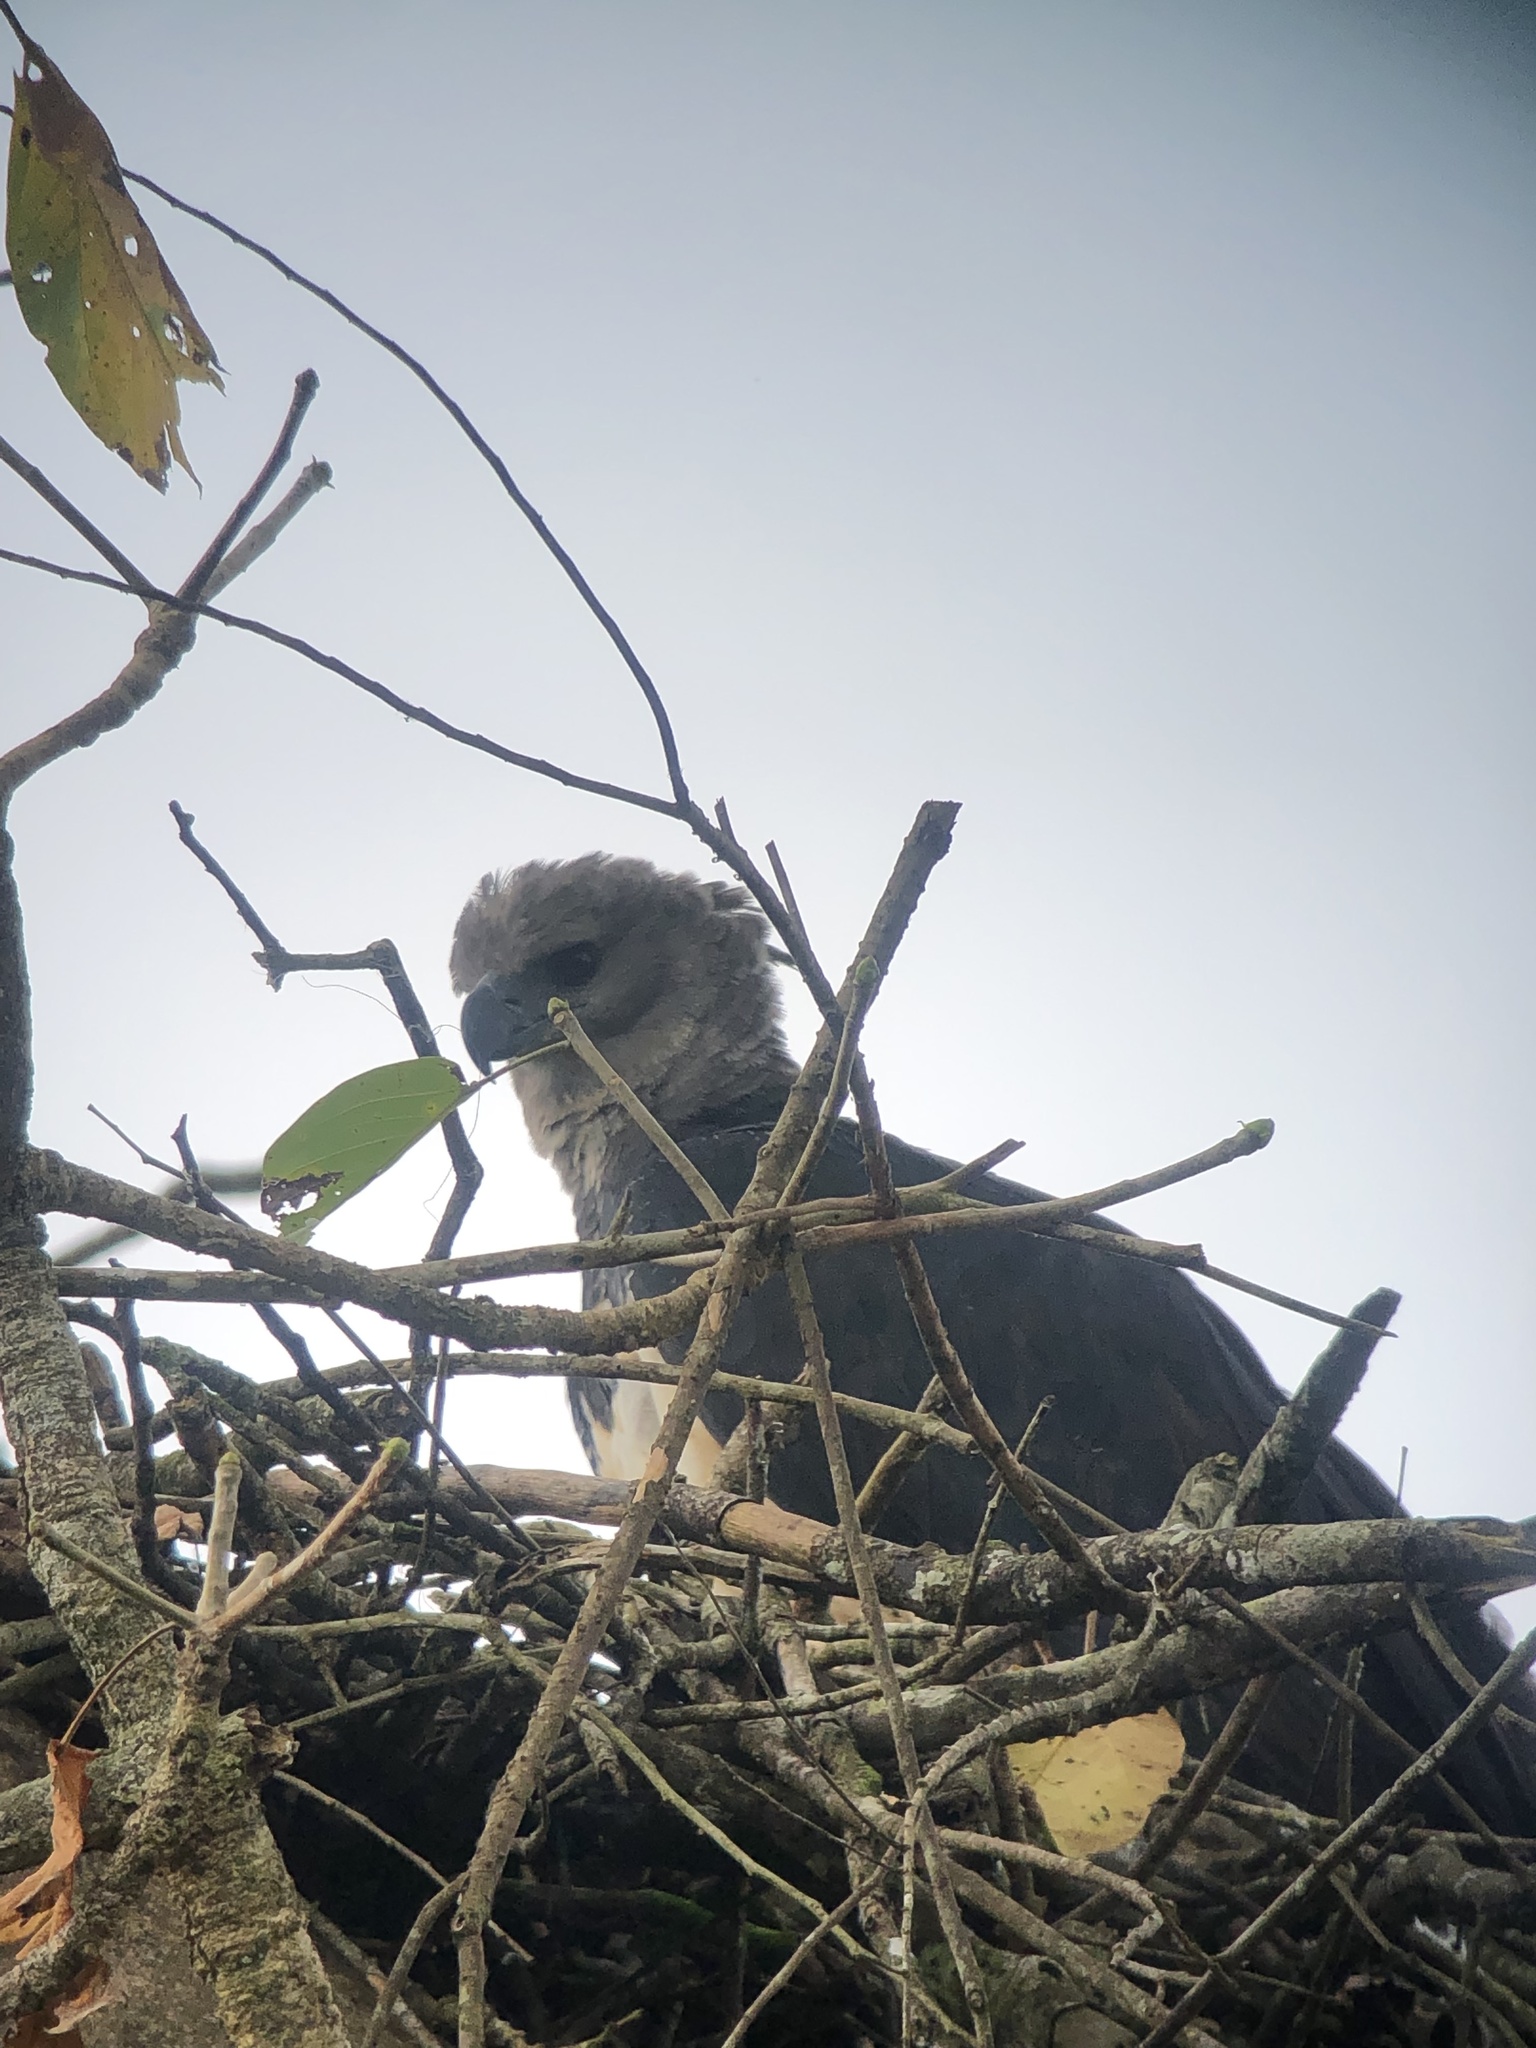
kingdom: Animalia
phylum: Chordata
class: Aves
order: Accipitriformes
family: Accipitridae
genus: Harpia
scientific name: Harpia harpyja
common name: Harpy eagle
